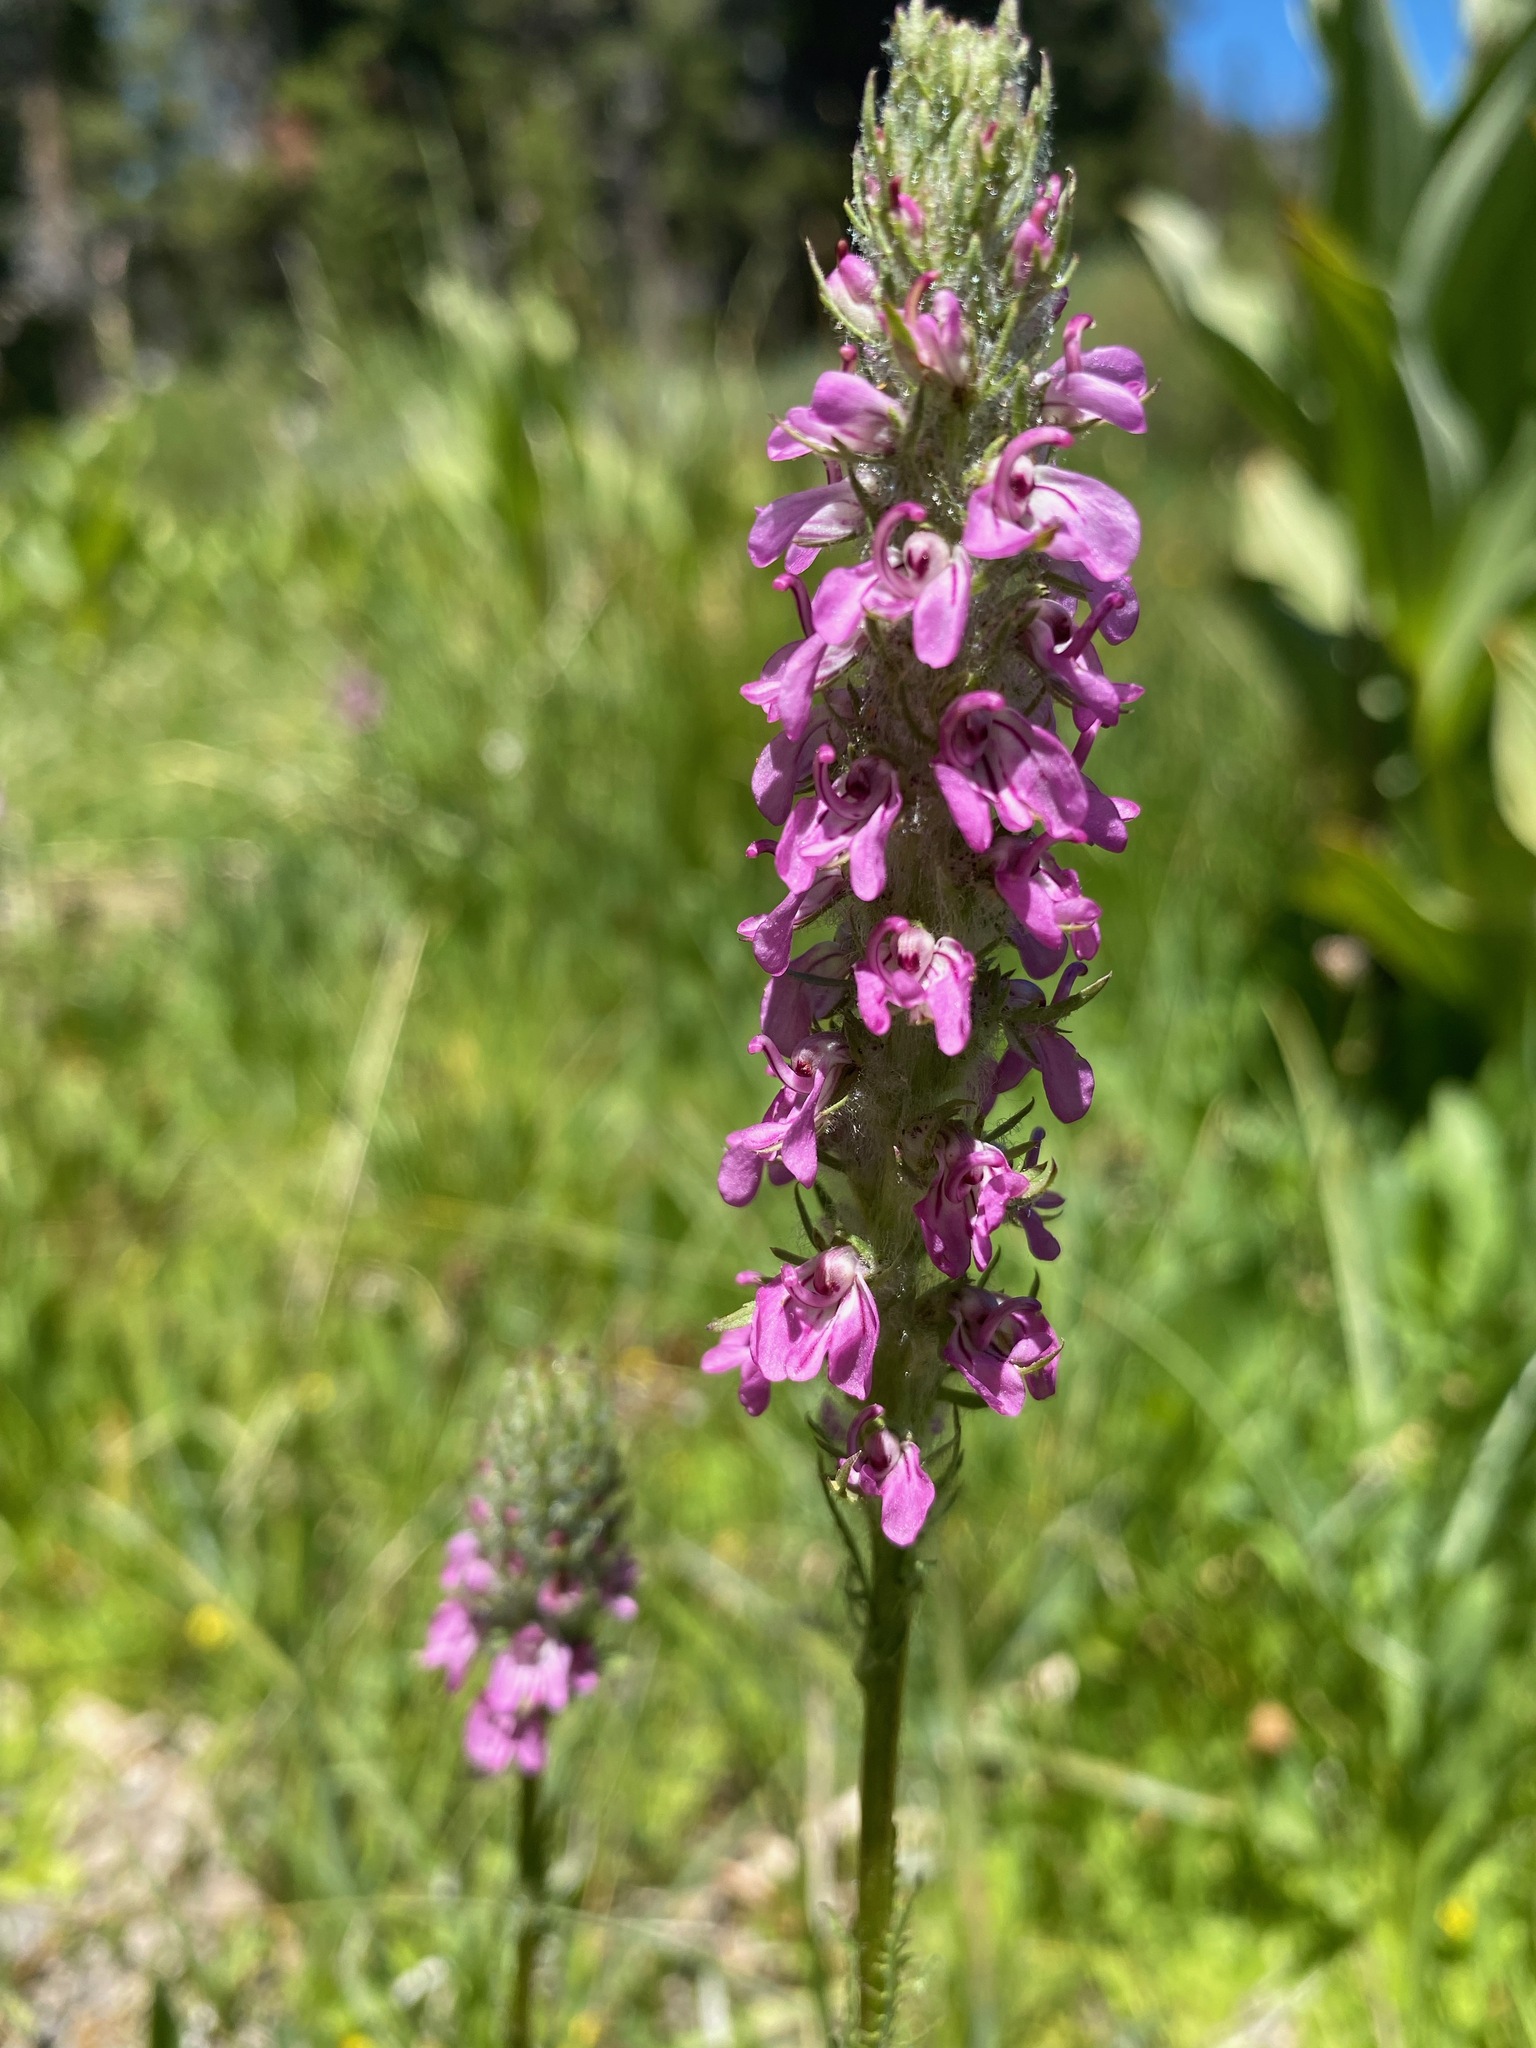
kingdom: Plantae
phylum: Tracheophyta
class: Magnoliopsida
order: Lamiales
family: Orobanchaceae
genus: Pedicularis
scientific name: Pedicularis attollens
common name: Slender pedicularis
